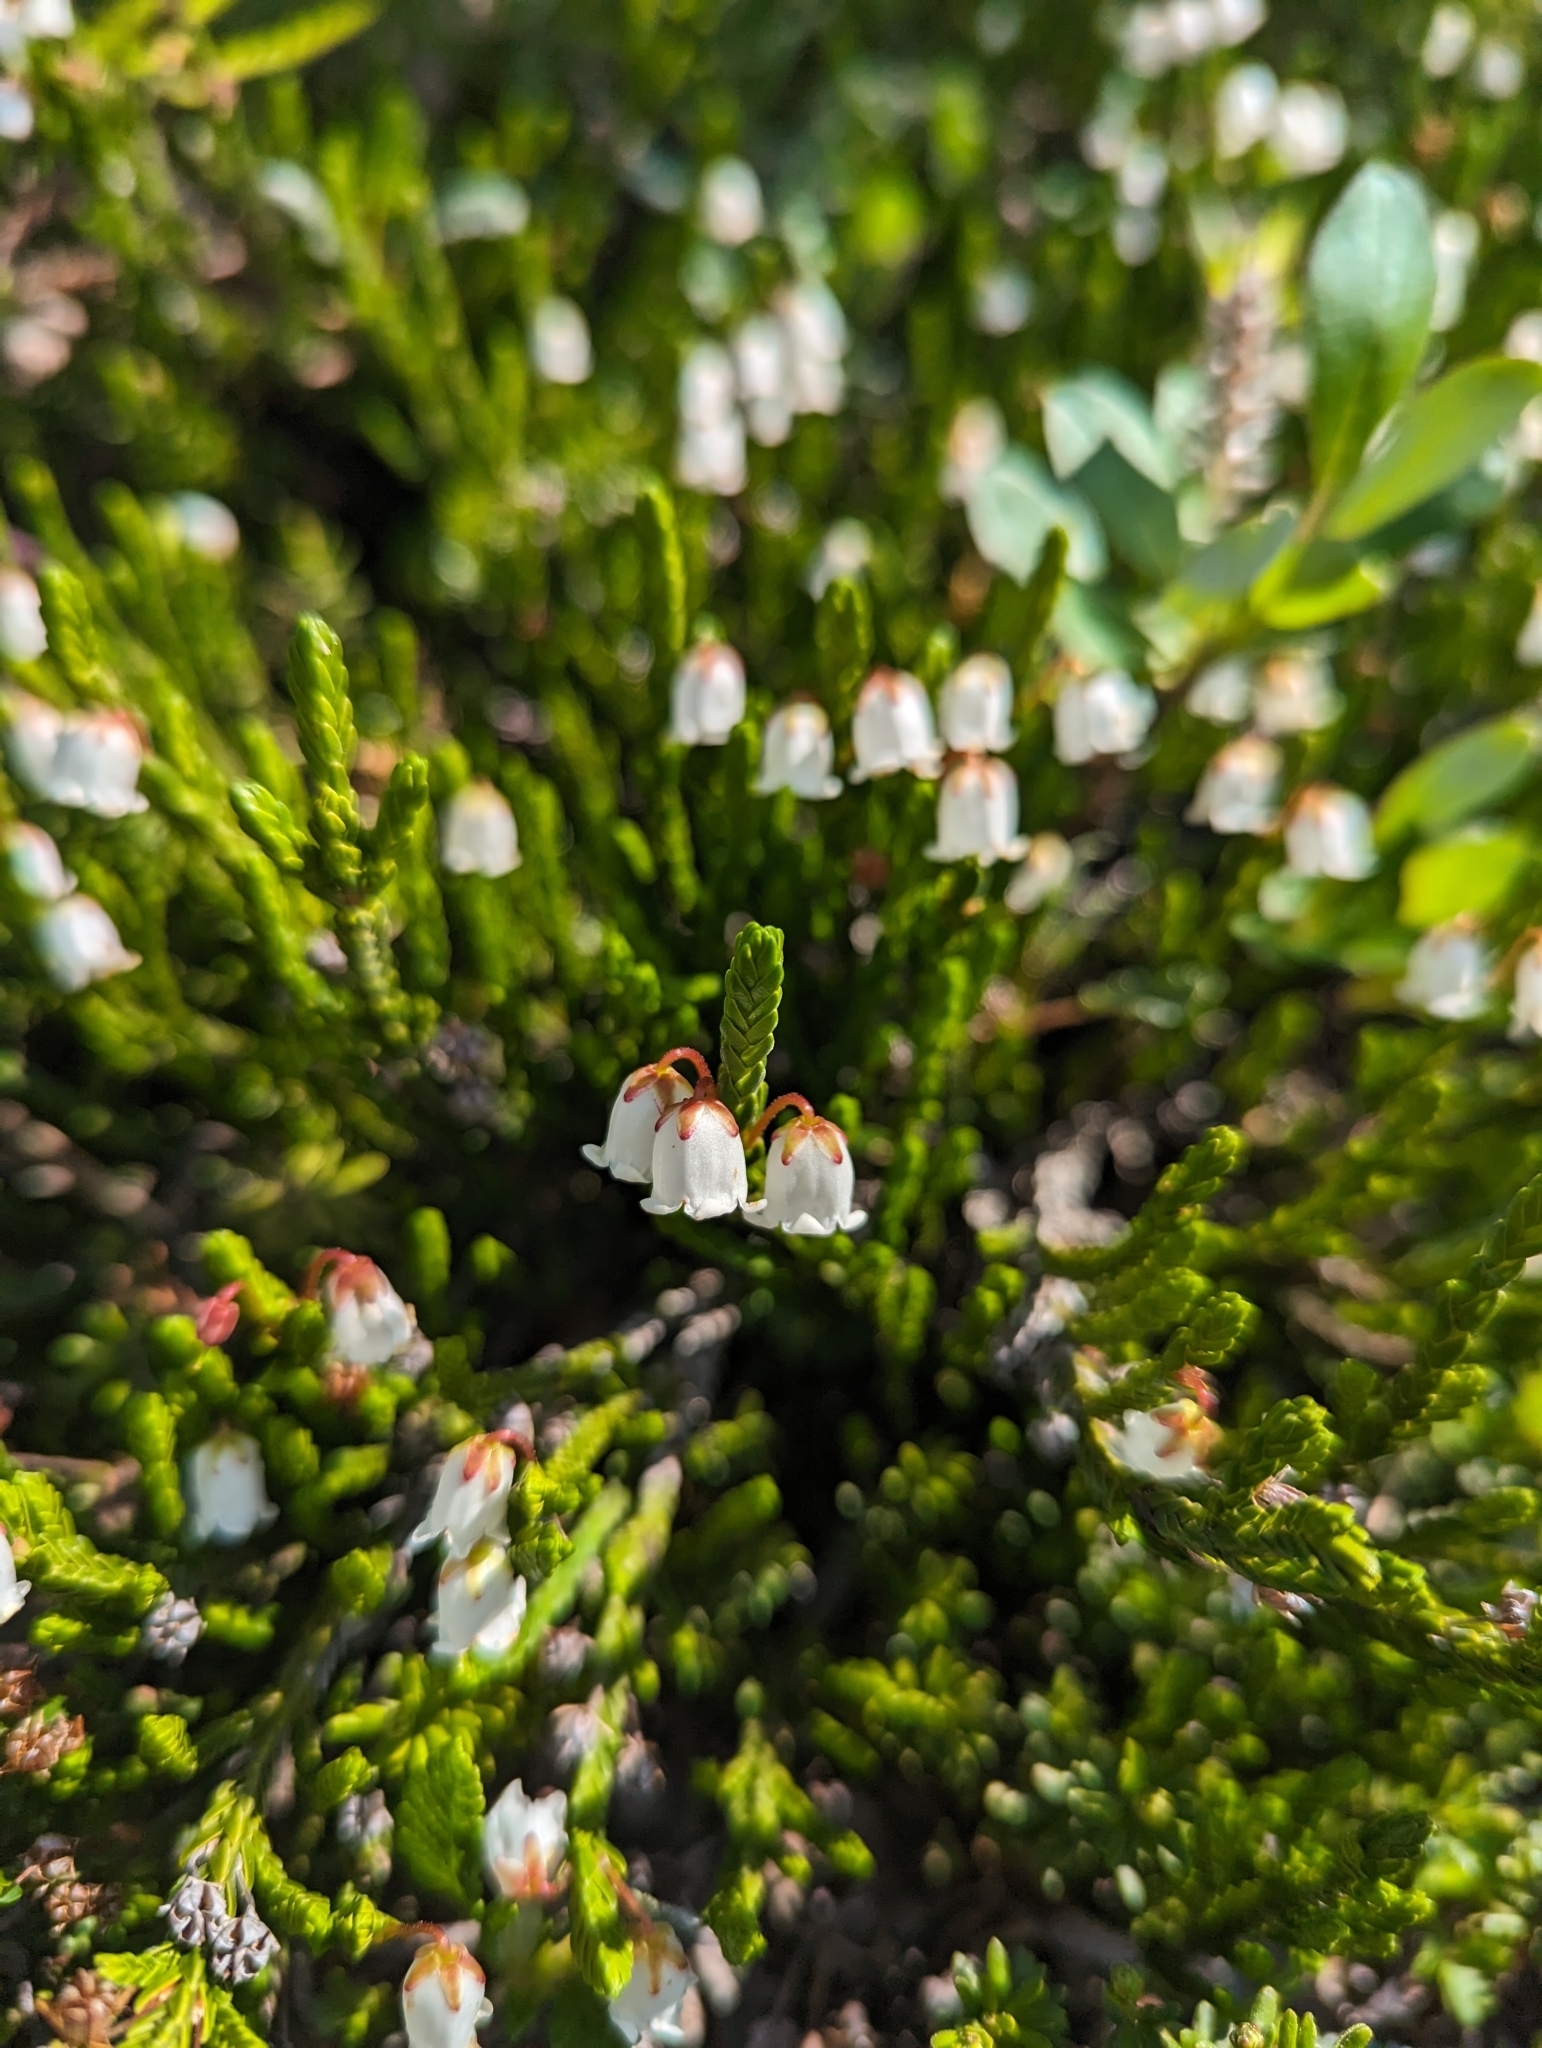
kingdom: Plantae
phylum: Tracheophyta
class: Magnoliopsida
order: Ericales
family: Ericaceae
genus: Cassiope
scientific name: Cassiope mertensiana
